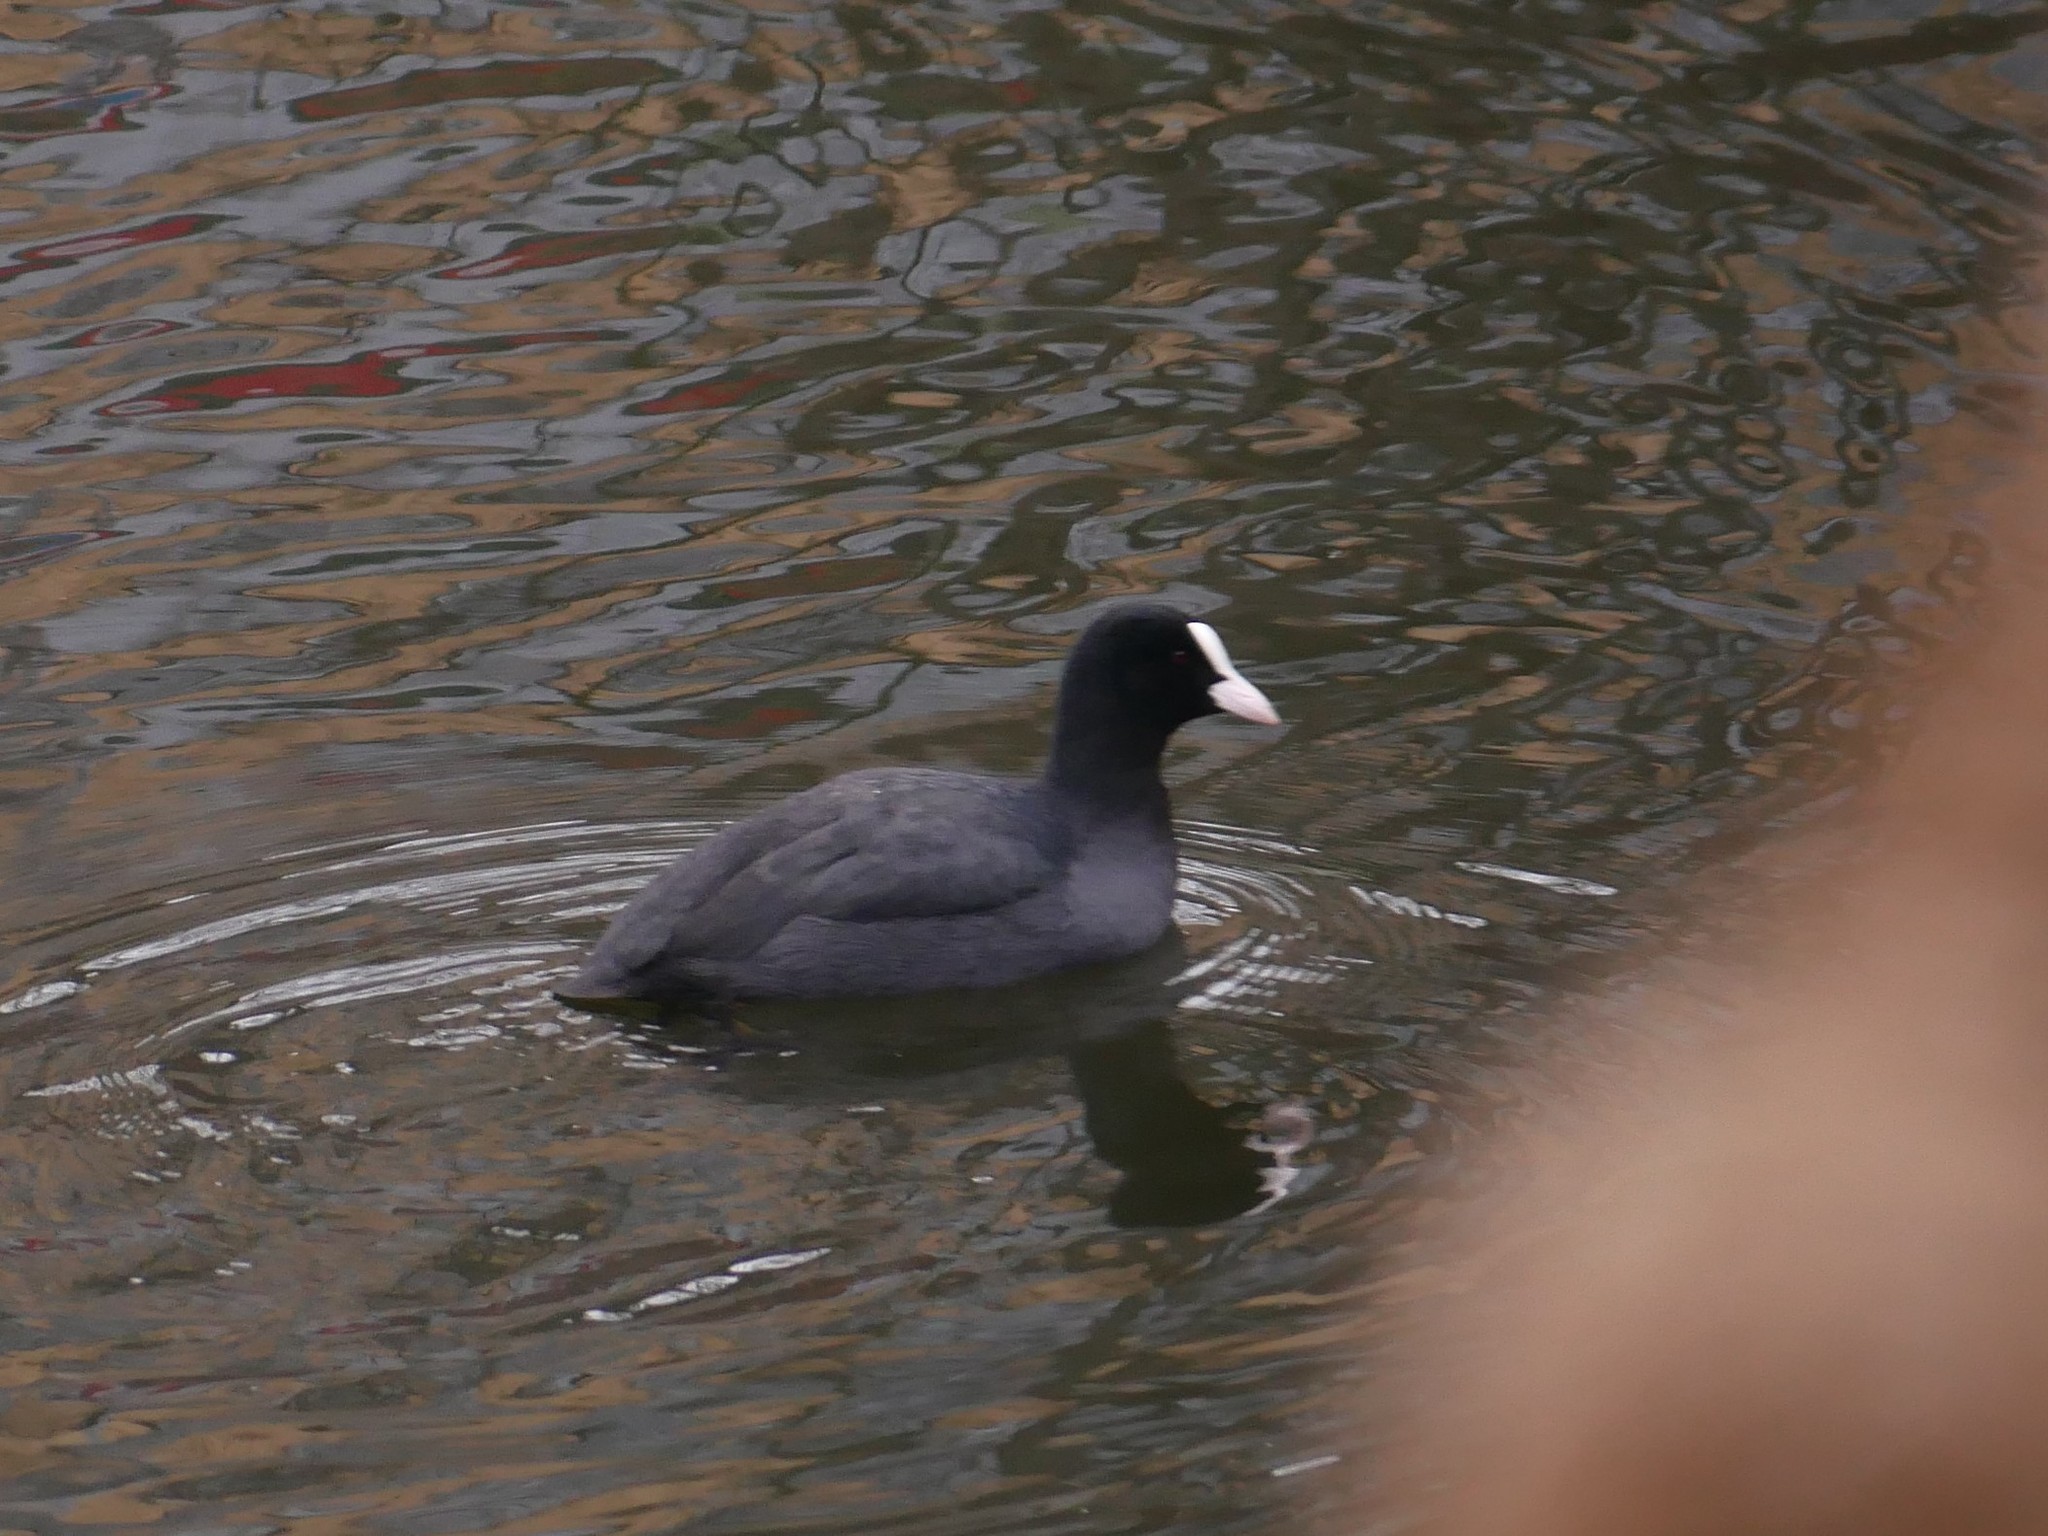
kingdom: Animalia
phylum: Chordata
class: Aves
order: Gruiformes
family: Rallidae
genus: Fulica
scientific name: Fulica atra
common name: Eurasian coot
